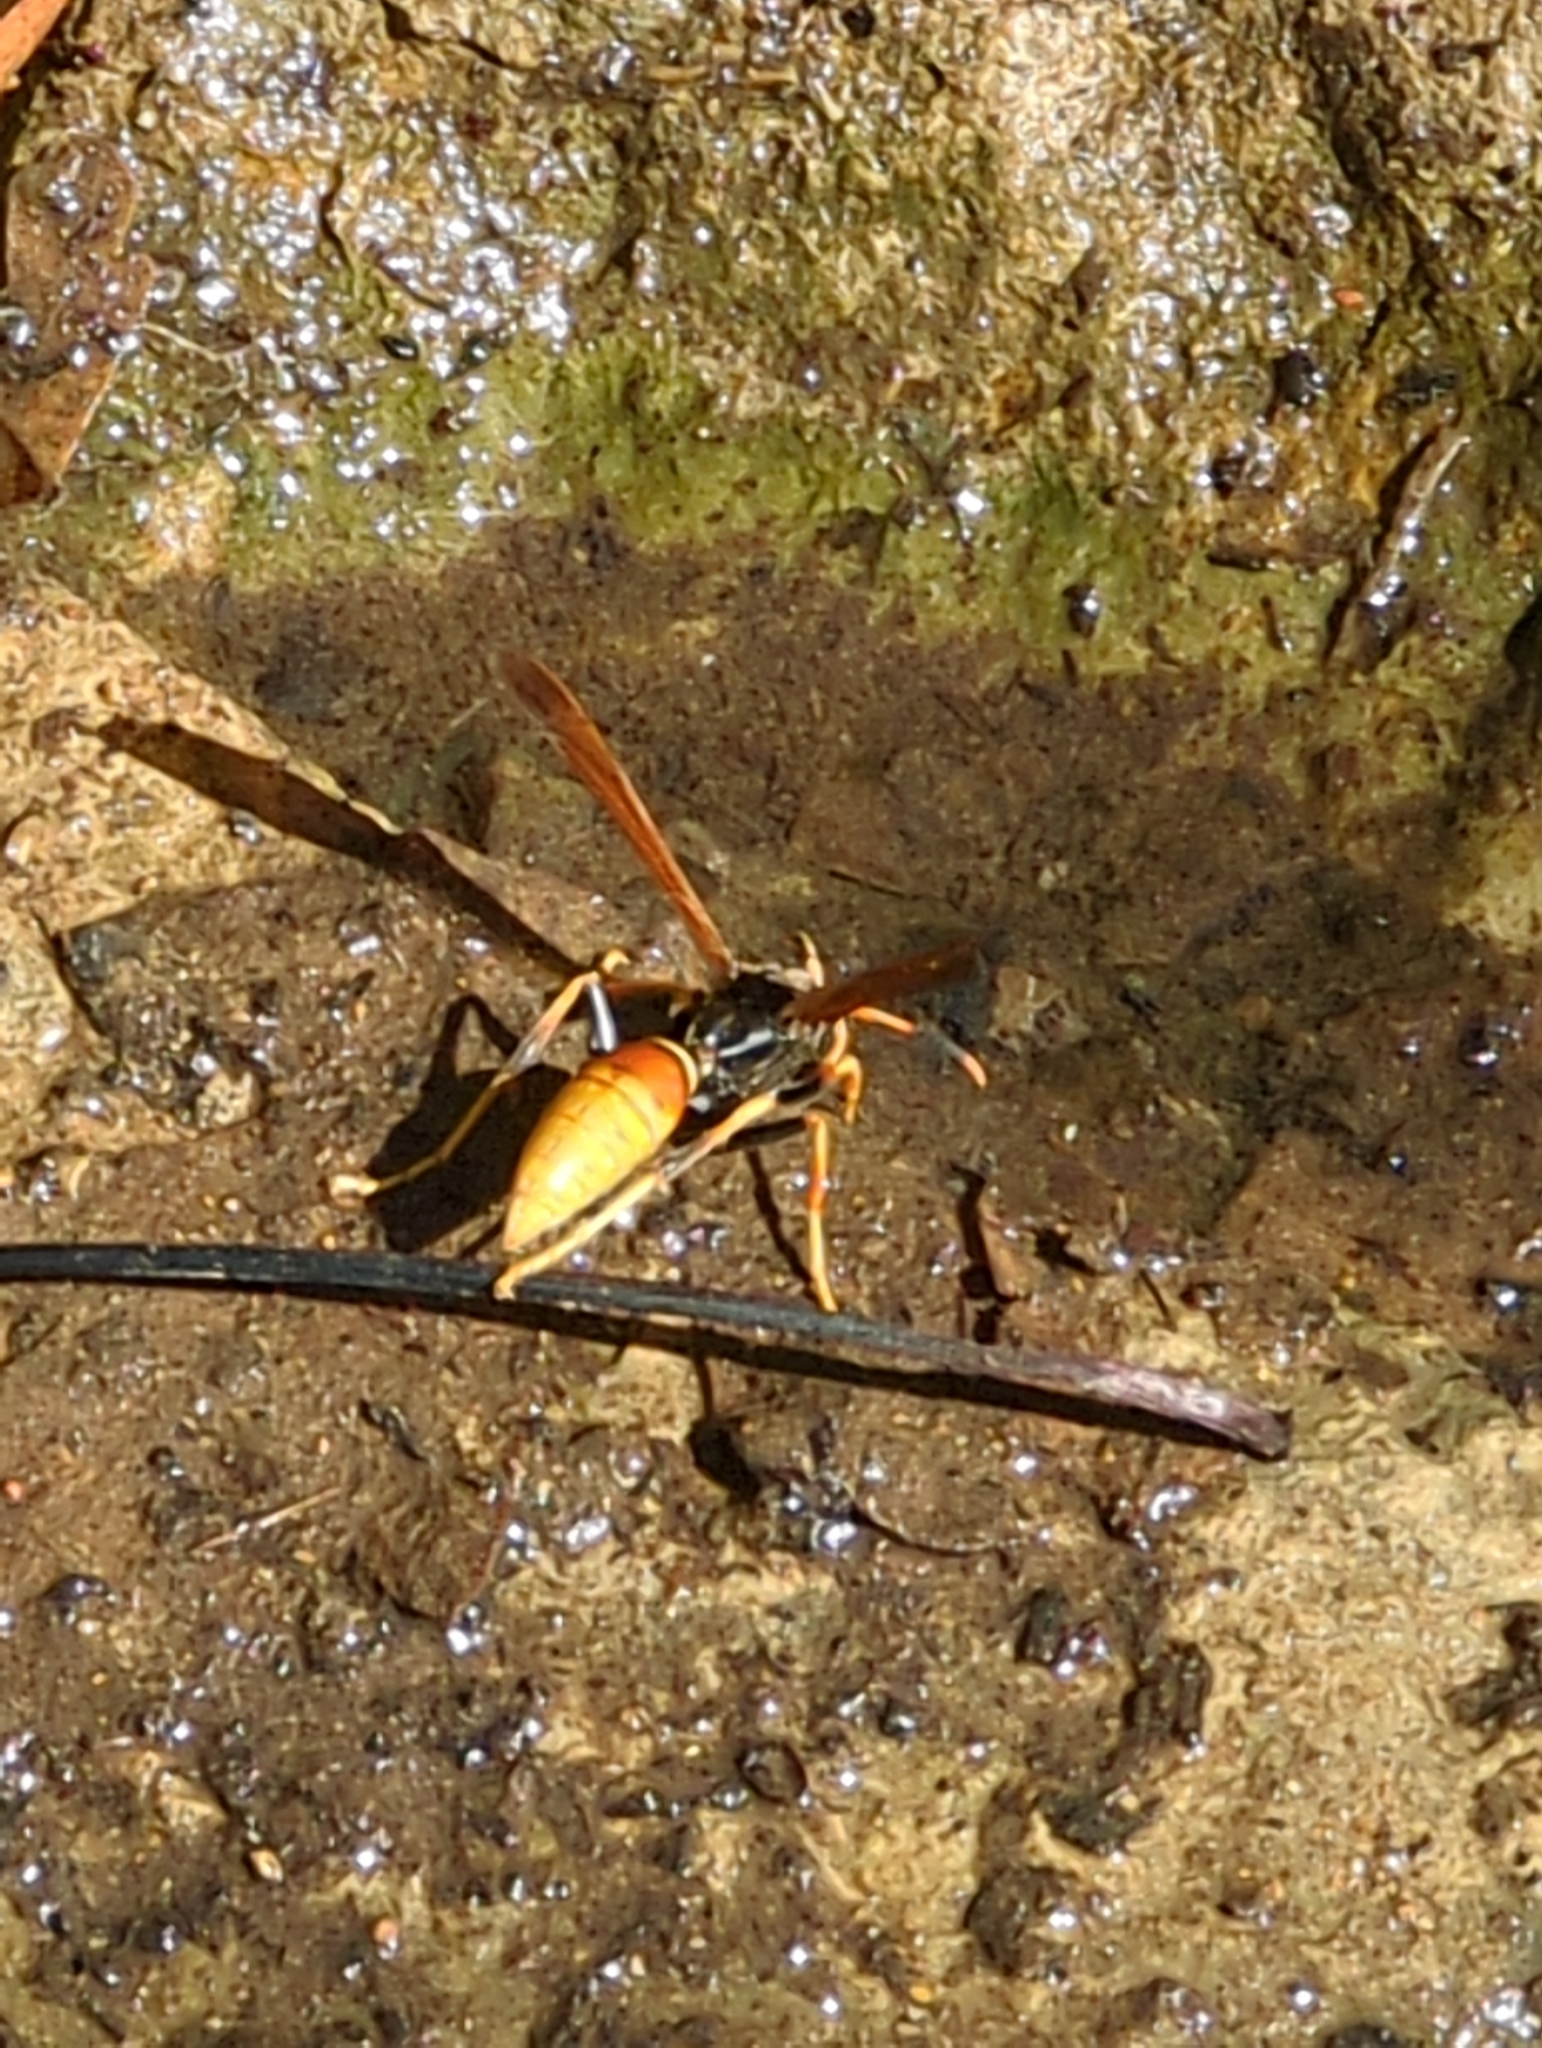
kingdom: Animalia
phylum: Arthropoda
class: Insecta
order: Hymenoptera
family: Eumenidae
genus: Polistes
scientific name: Polistes comanchus
